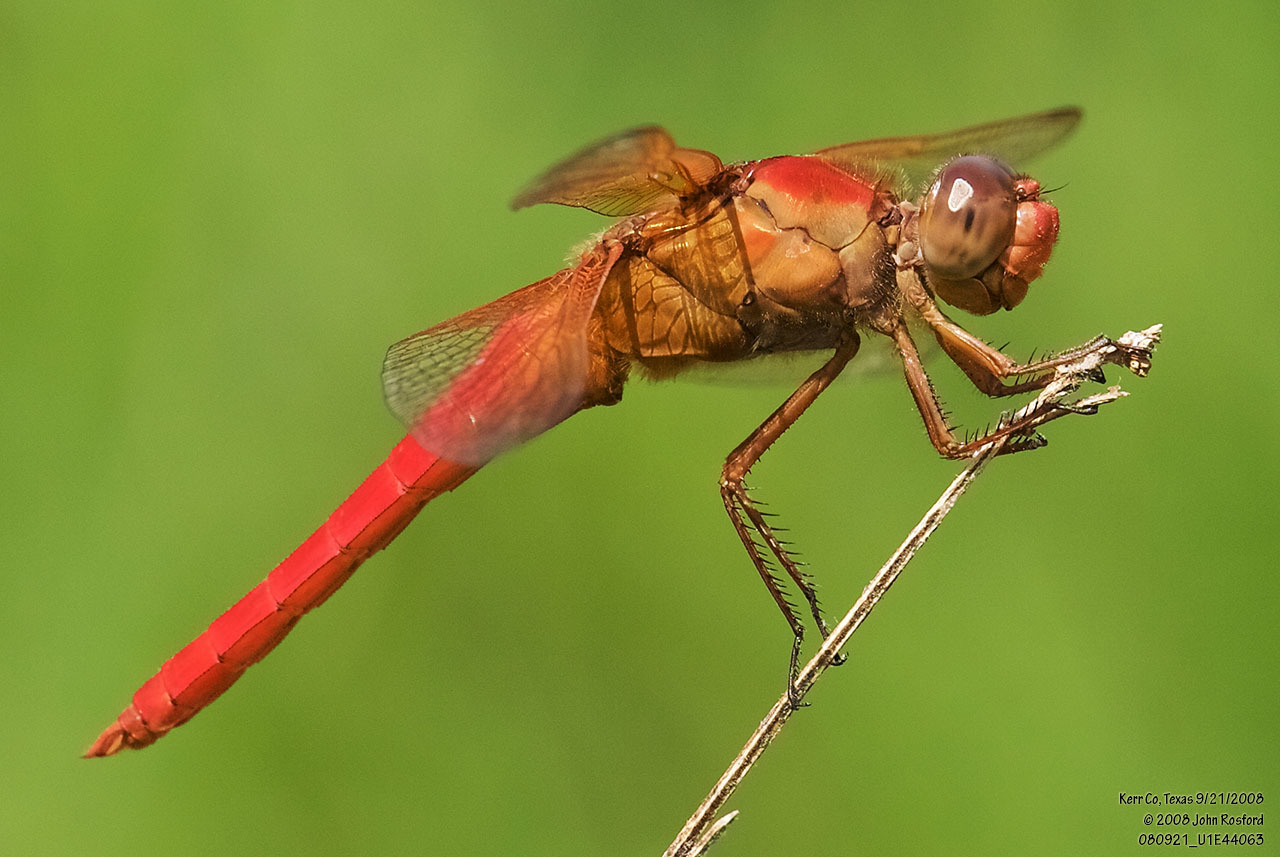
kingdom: Animalia
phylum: Arthropoda
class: Insecta
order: Odonata
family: Libellulidae
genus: Libellula
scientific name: Libellula croceipennis
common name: Neon skimmer
